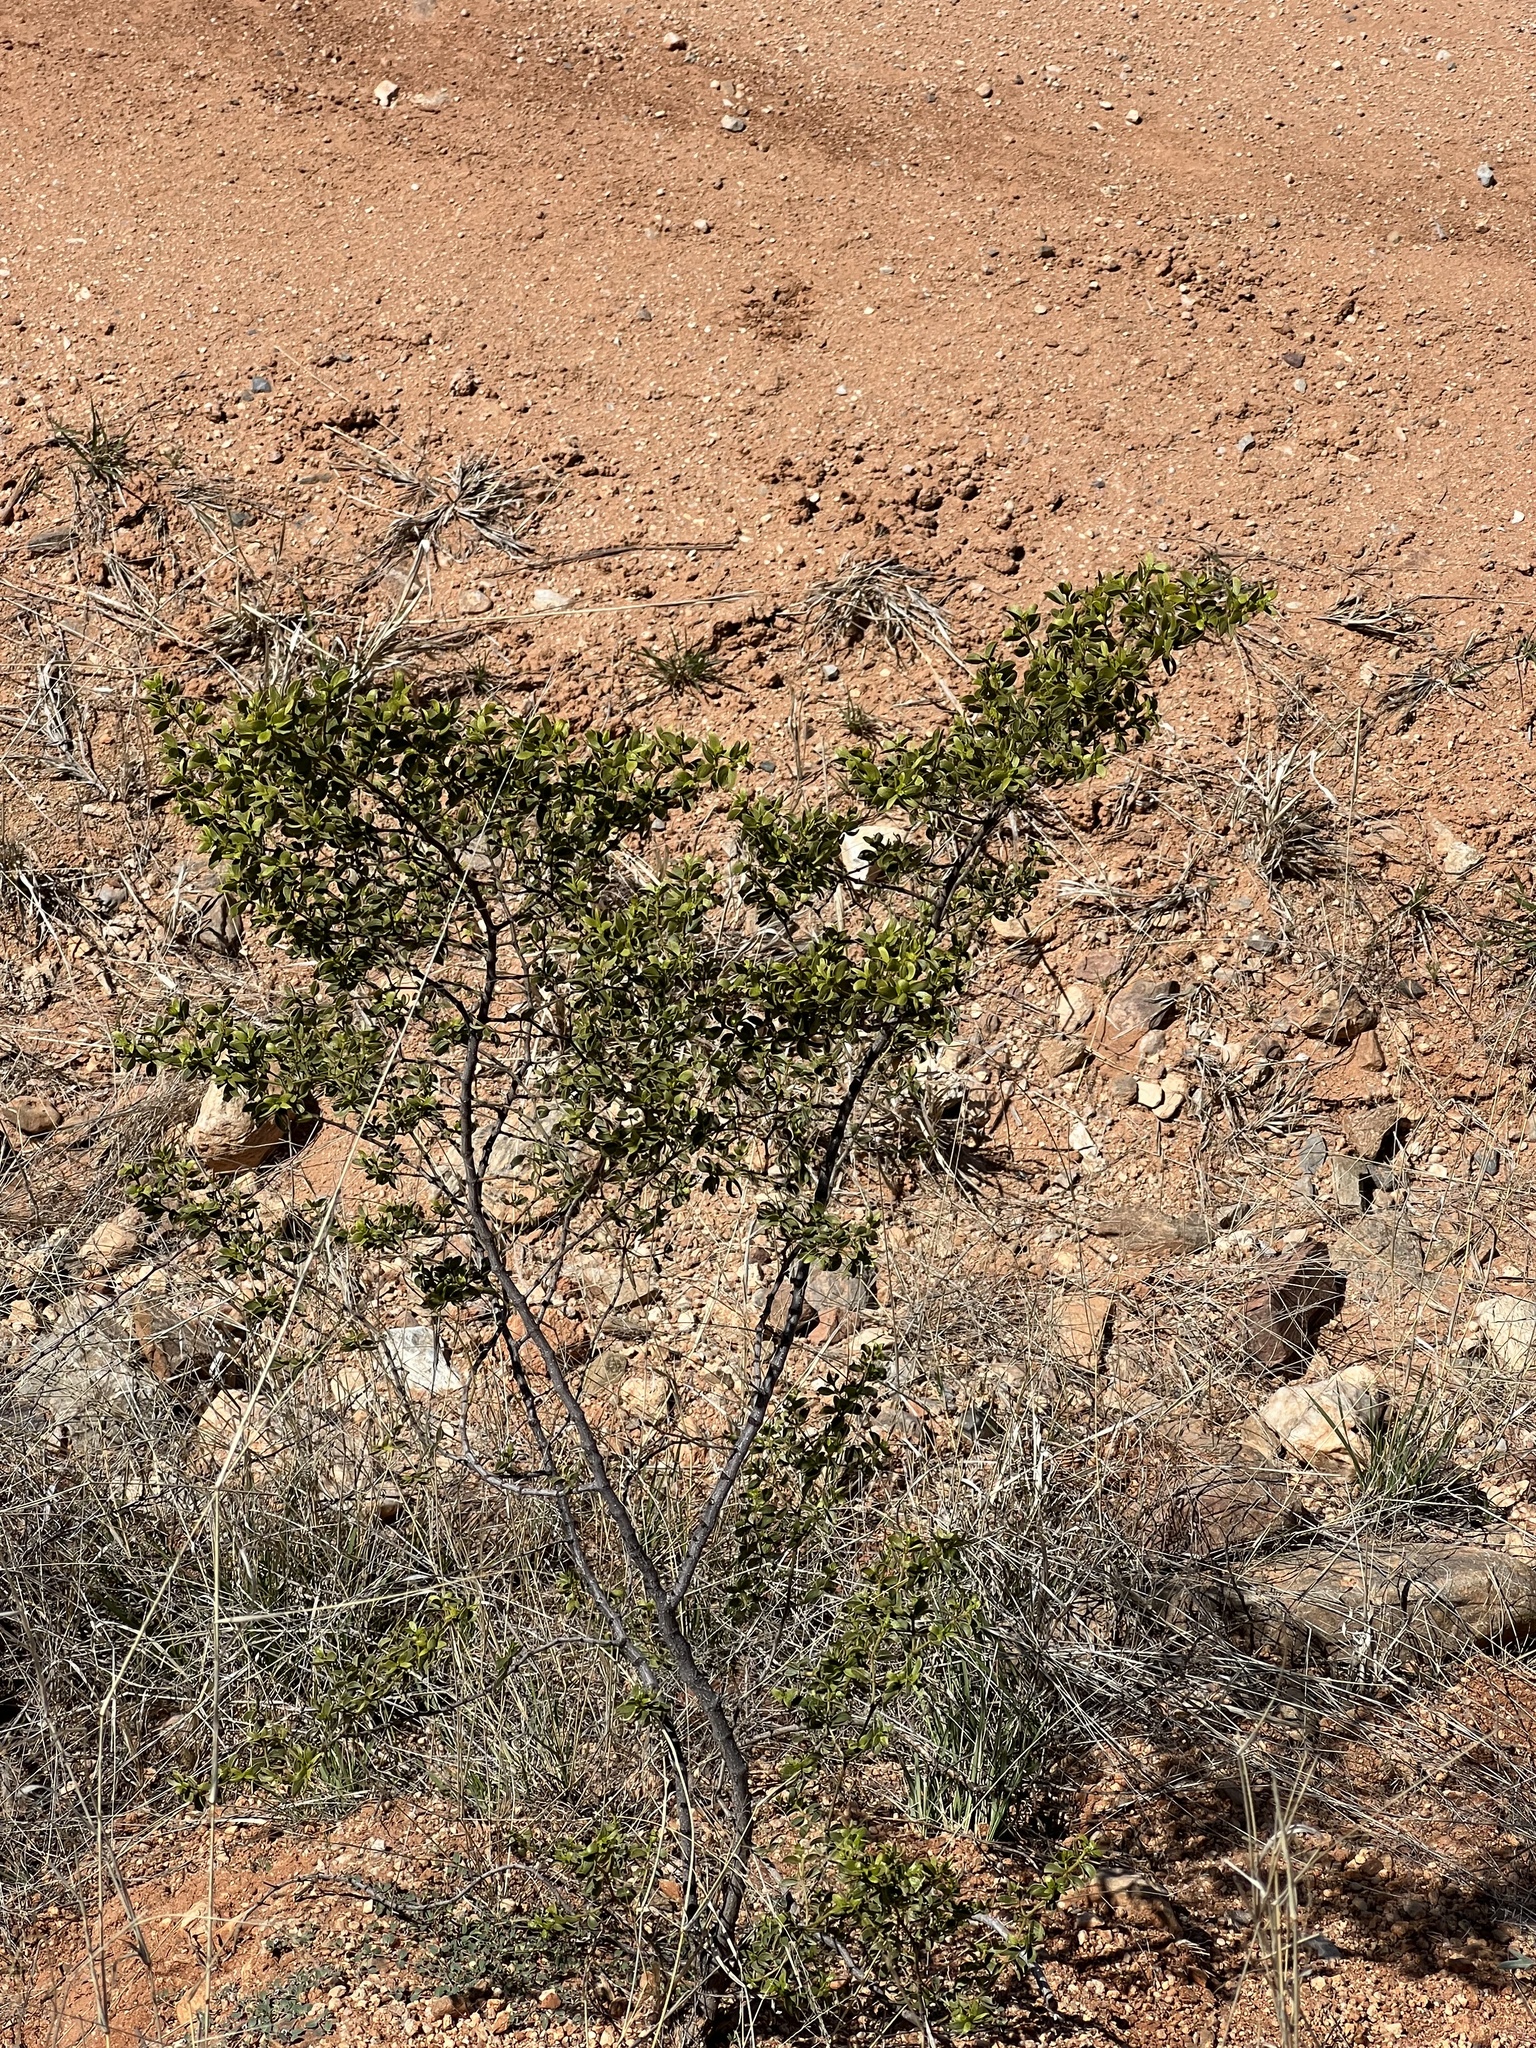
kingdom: Plantae
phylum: Tracheophyta
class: Magnoliopsida
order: Zygophyllales
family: Zygophyllaceae
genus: Larrea
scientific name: Larrea tridentata
